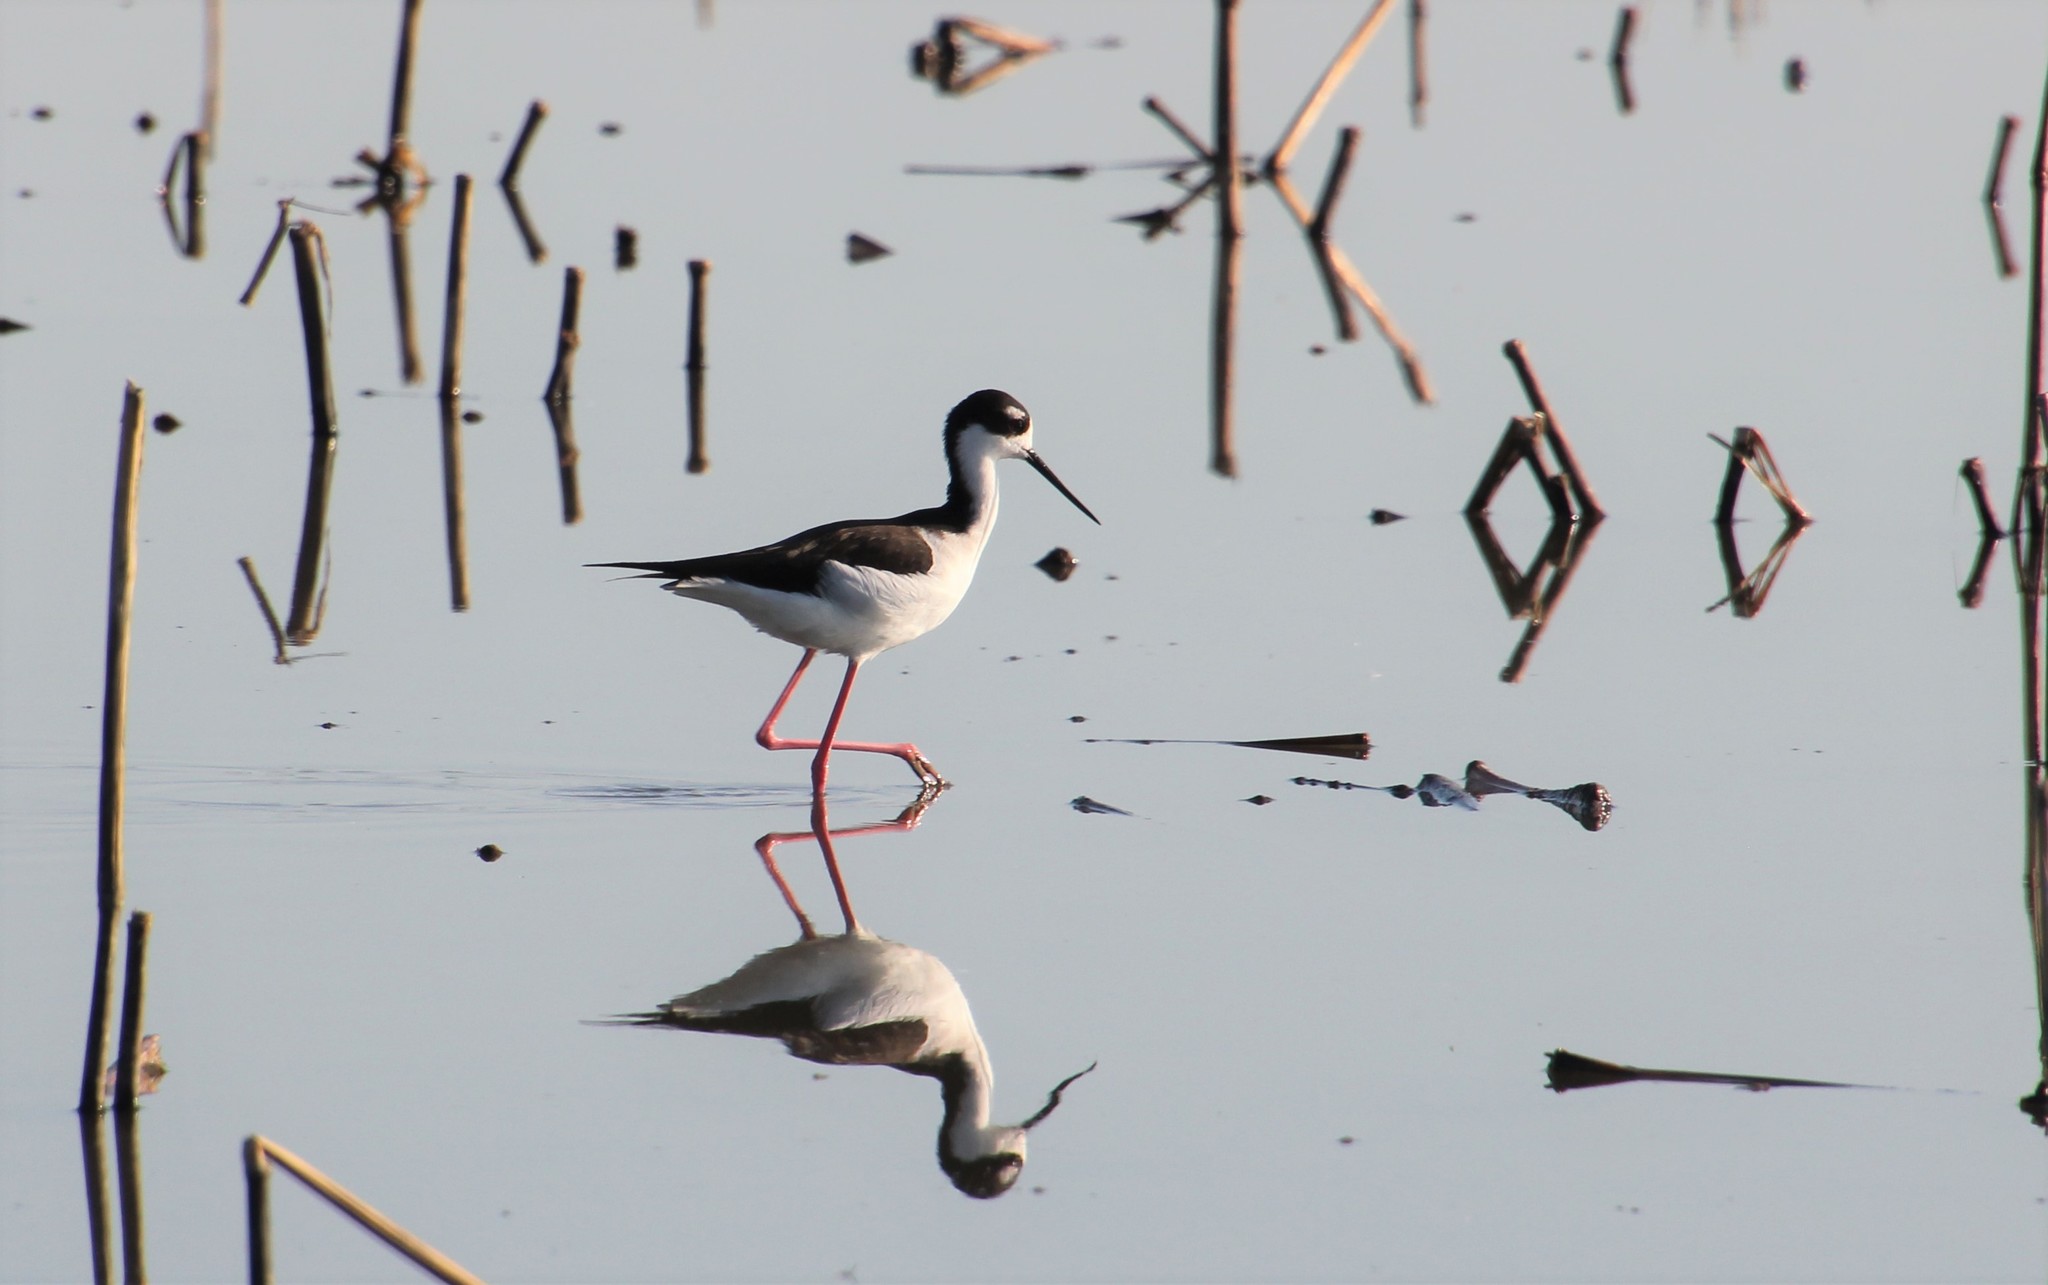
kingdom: Animalia
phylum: Chordata
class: Aves
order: Charadriiformes
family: Recurvirostridae
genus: Himantopus
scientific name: Himantopus mexicanus
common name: Black-necked stilt
